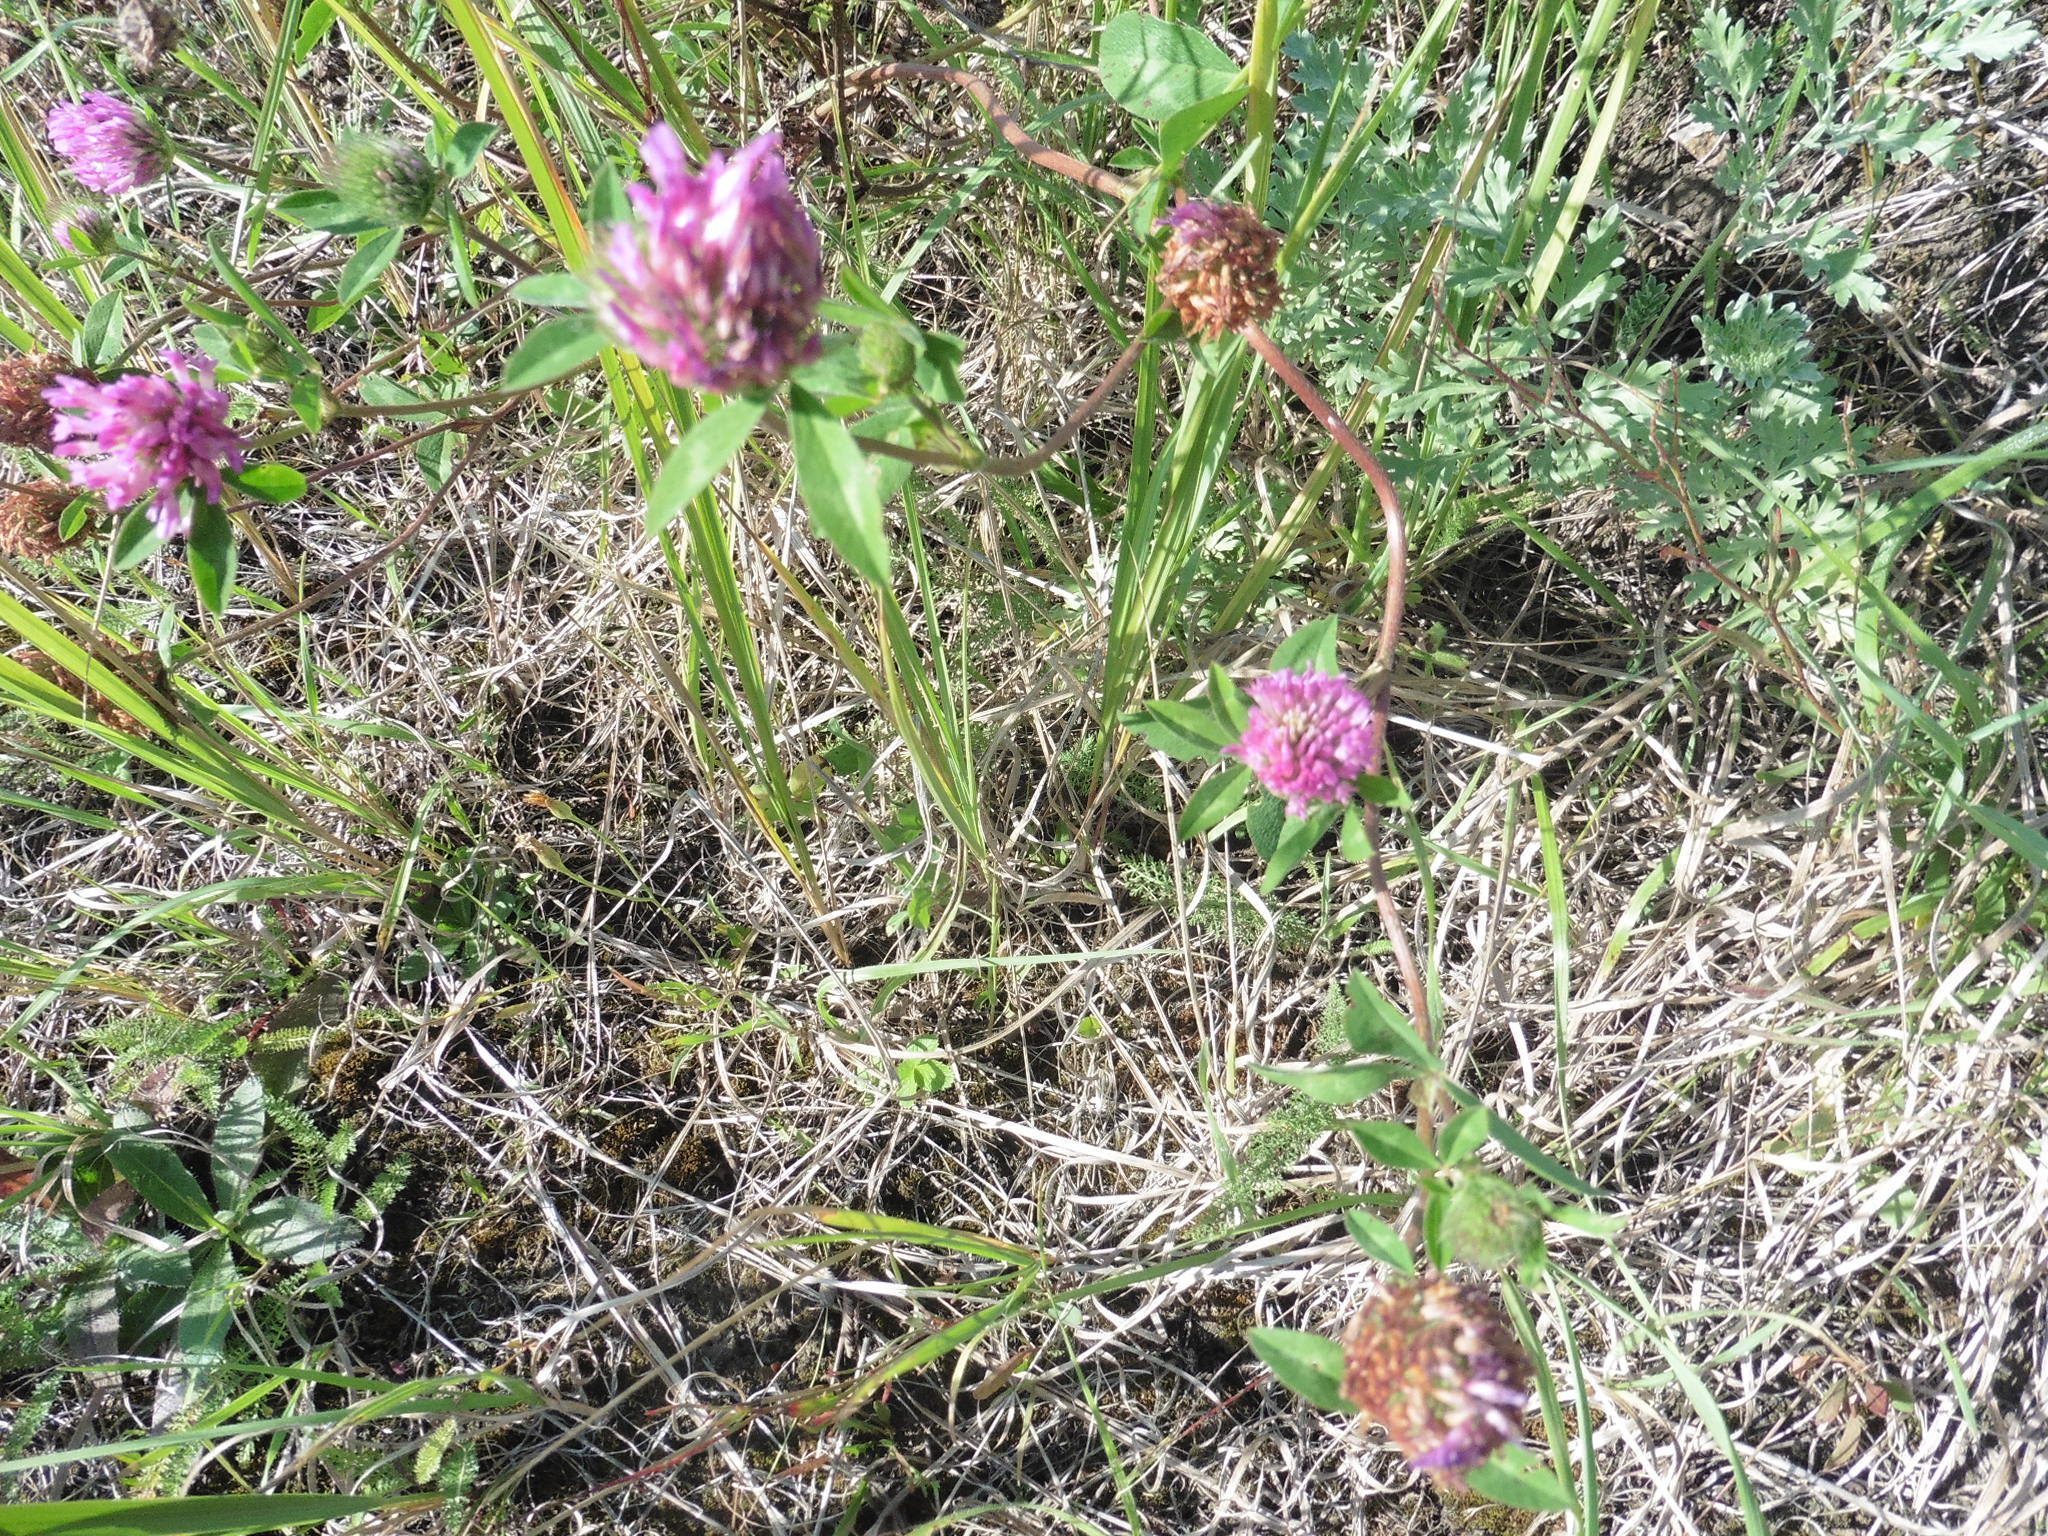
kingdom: Plantae
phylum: Tracheophyta
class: Magnoliopsida
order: Fabales
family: Fabaceae
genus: Trifolium
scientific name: Trifolium pratense
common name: Red clover
